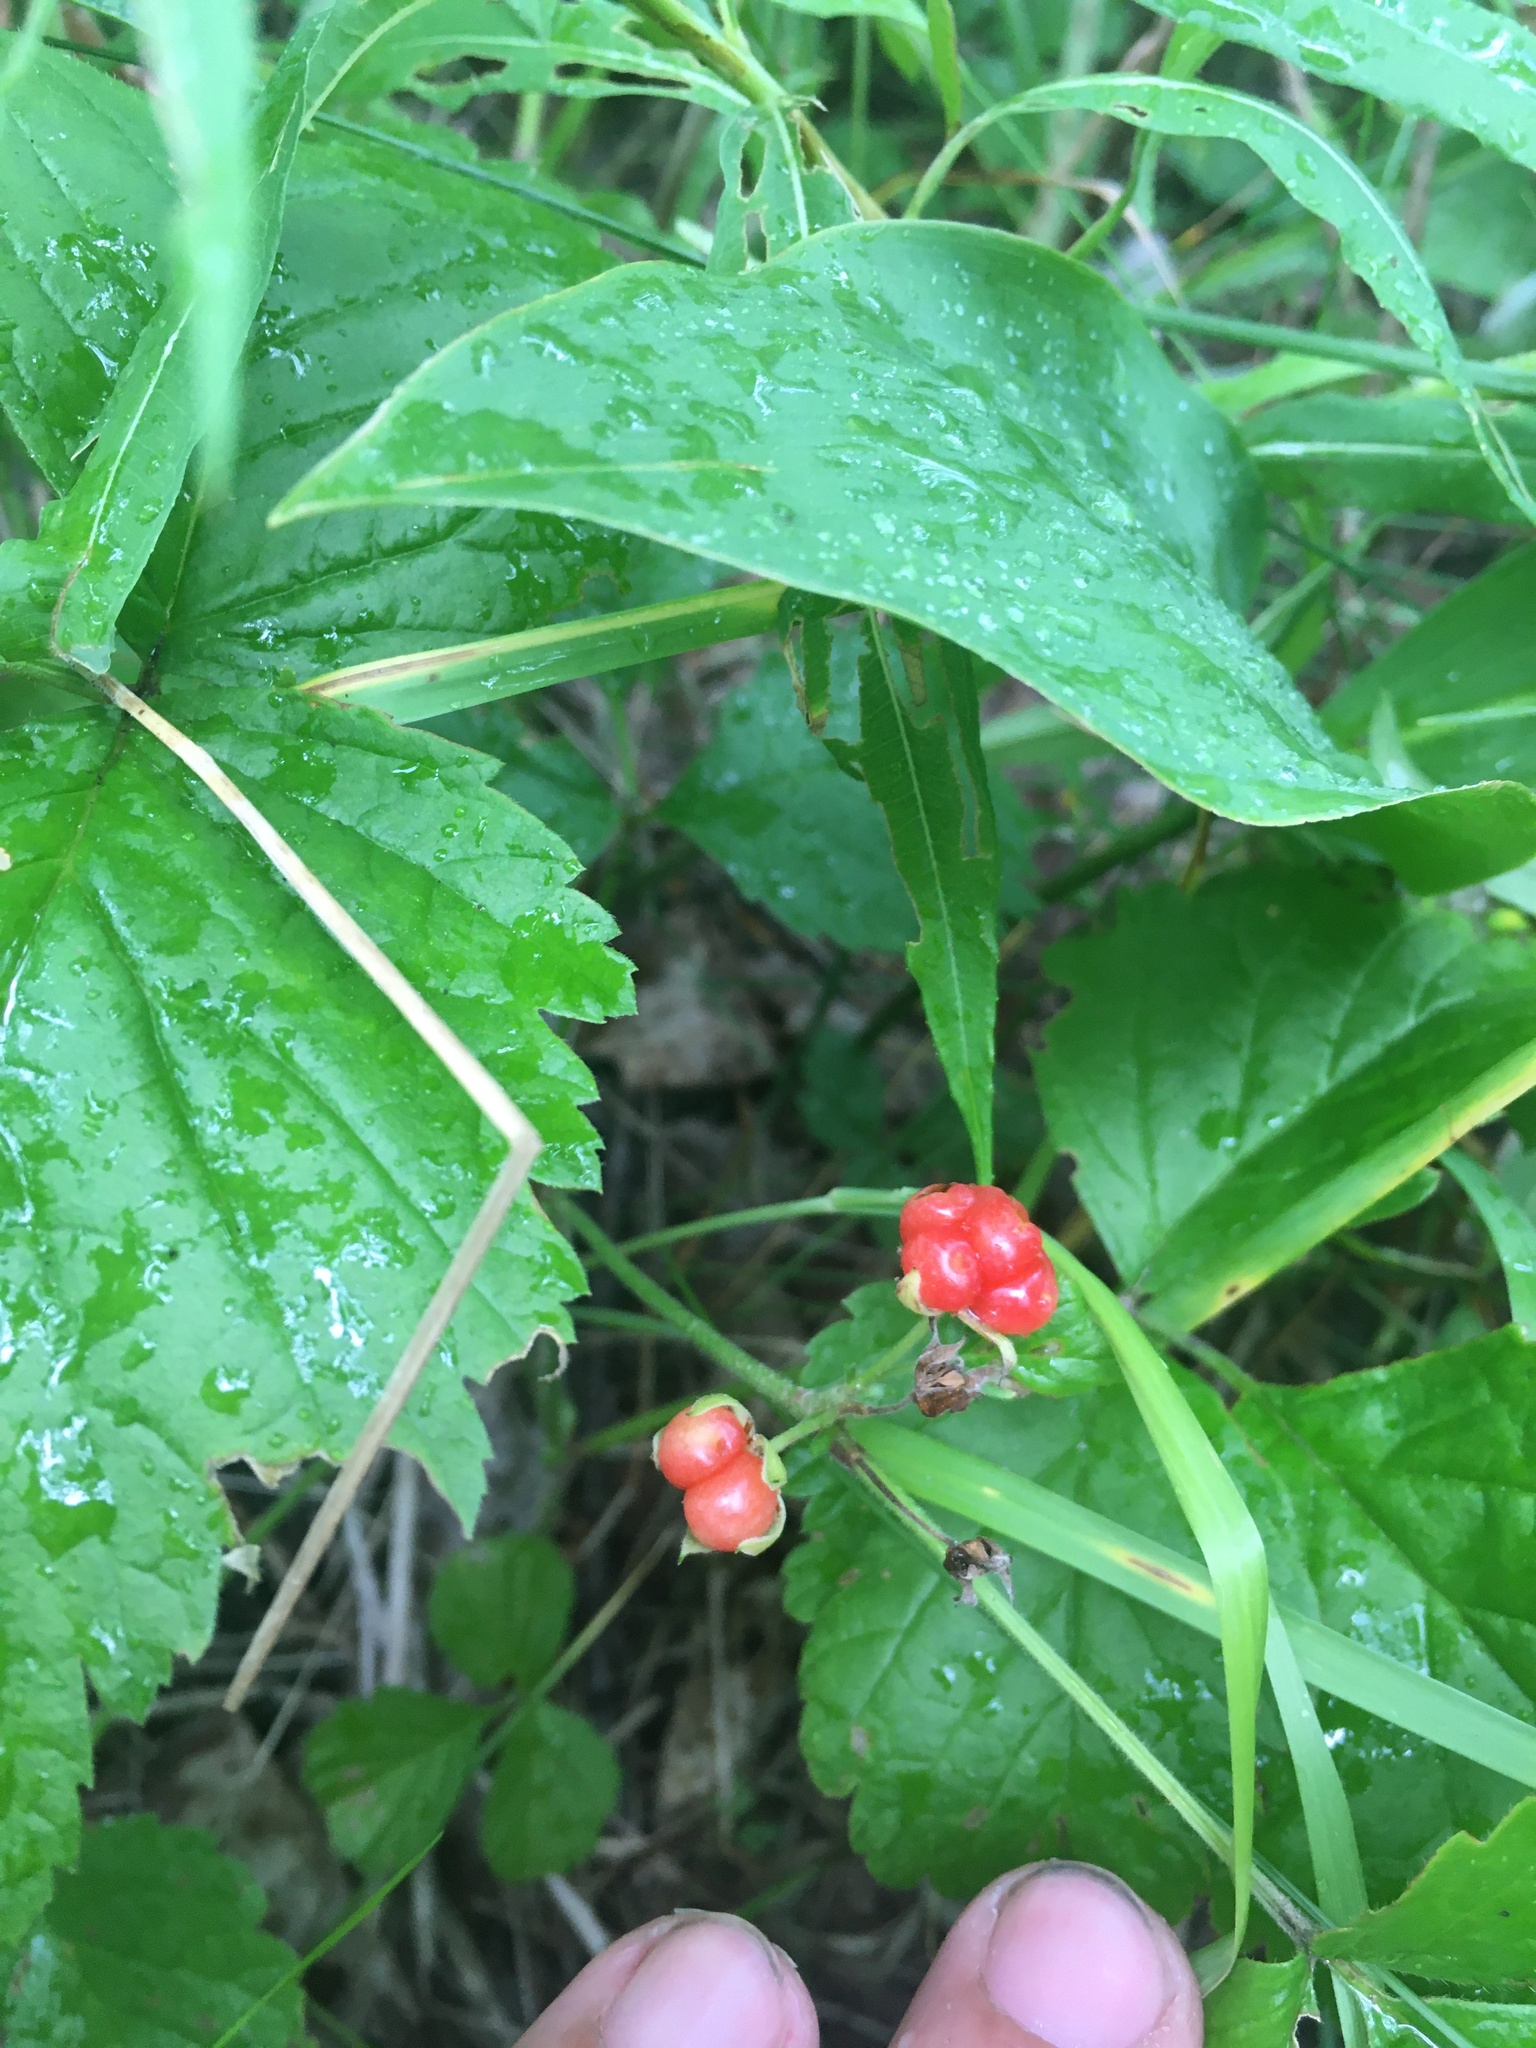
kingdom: Plantae
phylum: Tracheophyta
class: Magnoliopsida
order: Rosales
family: Rosaceae
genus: Rubus
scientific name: Rubus saxatilis
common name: Stone bramble
